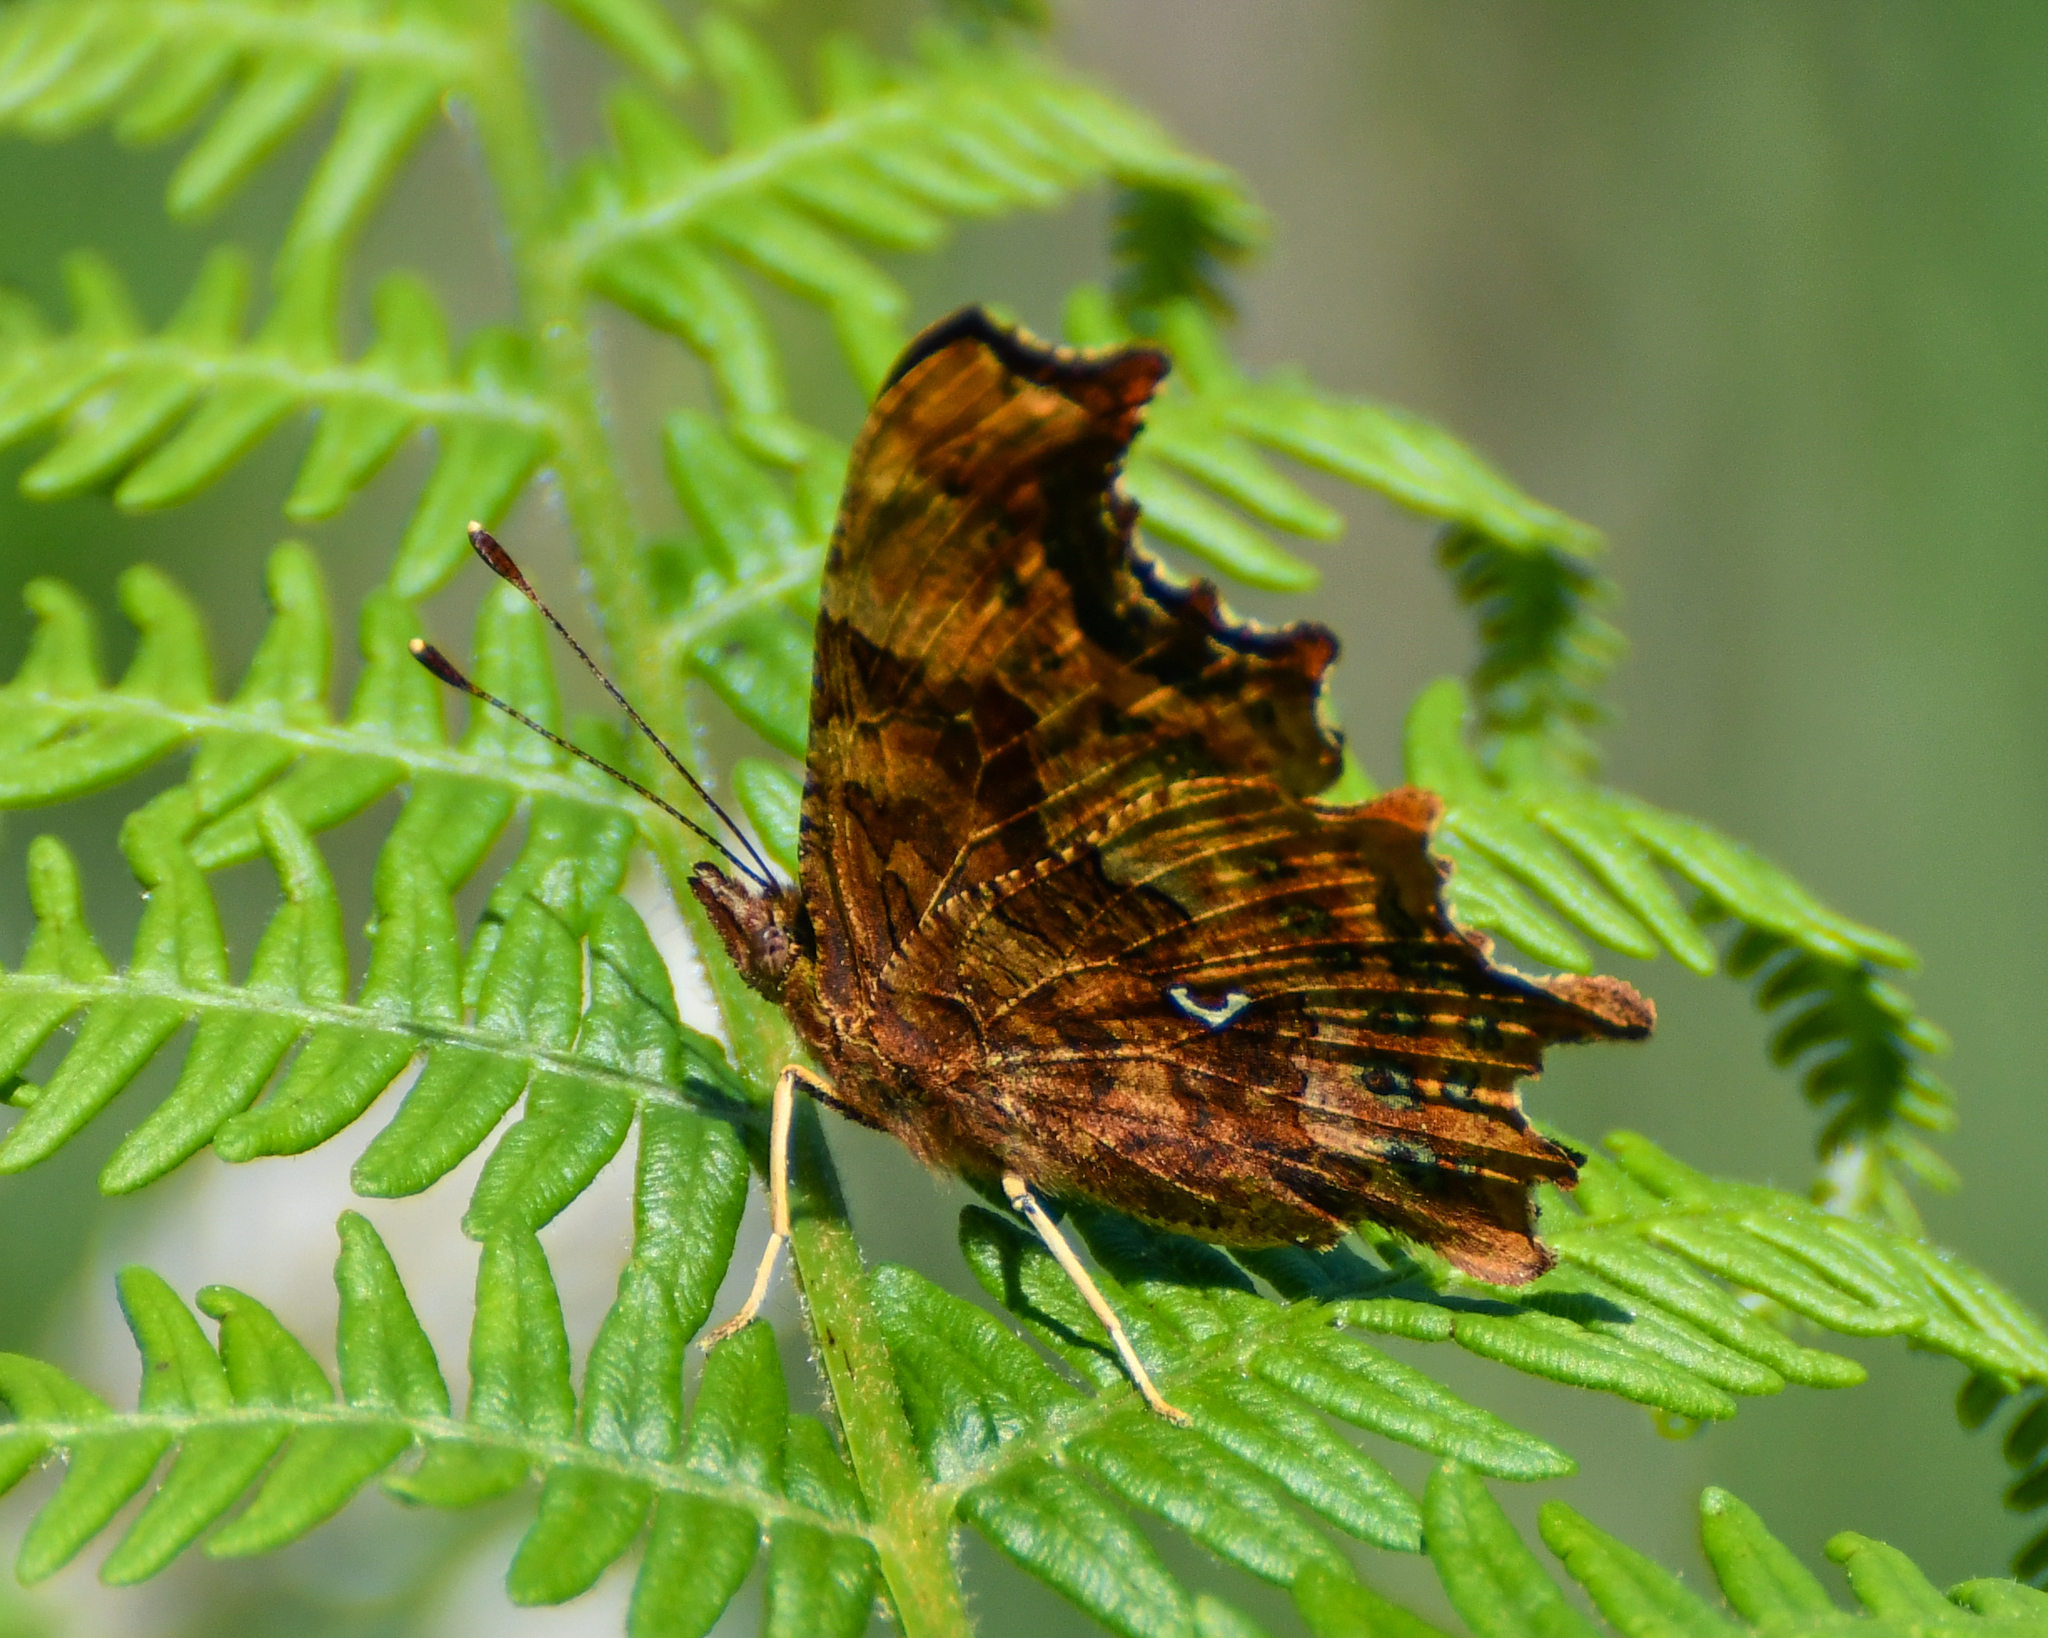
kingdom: Animalia
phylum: Arthropoda
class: Insecta
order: Lepidoptera
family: Nymphalidae
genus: Polygonia
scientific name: Polygonia c-album
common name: Comma
